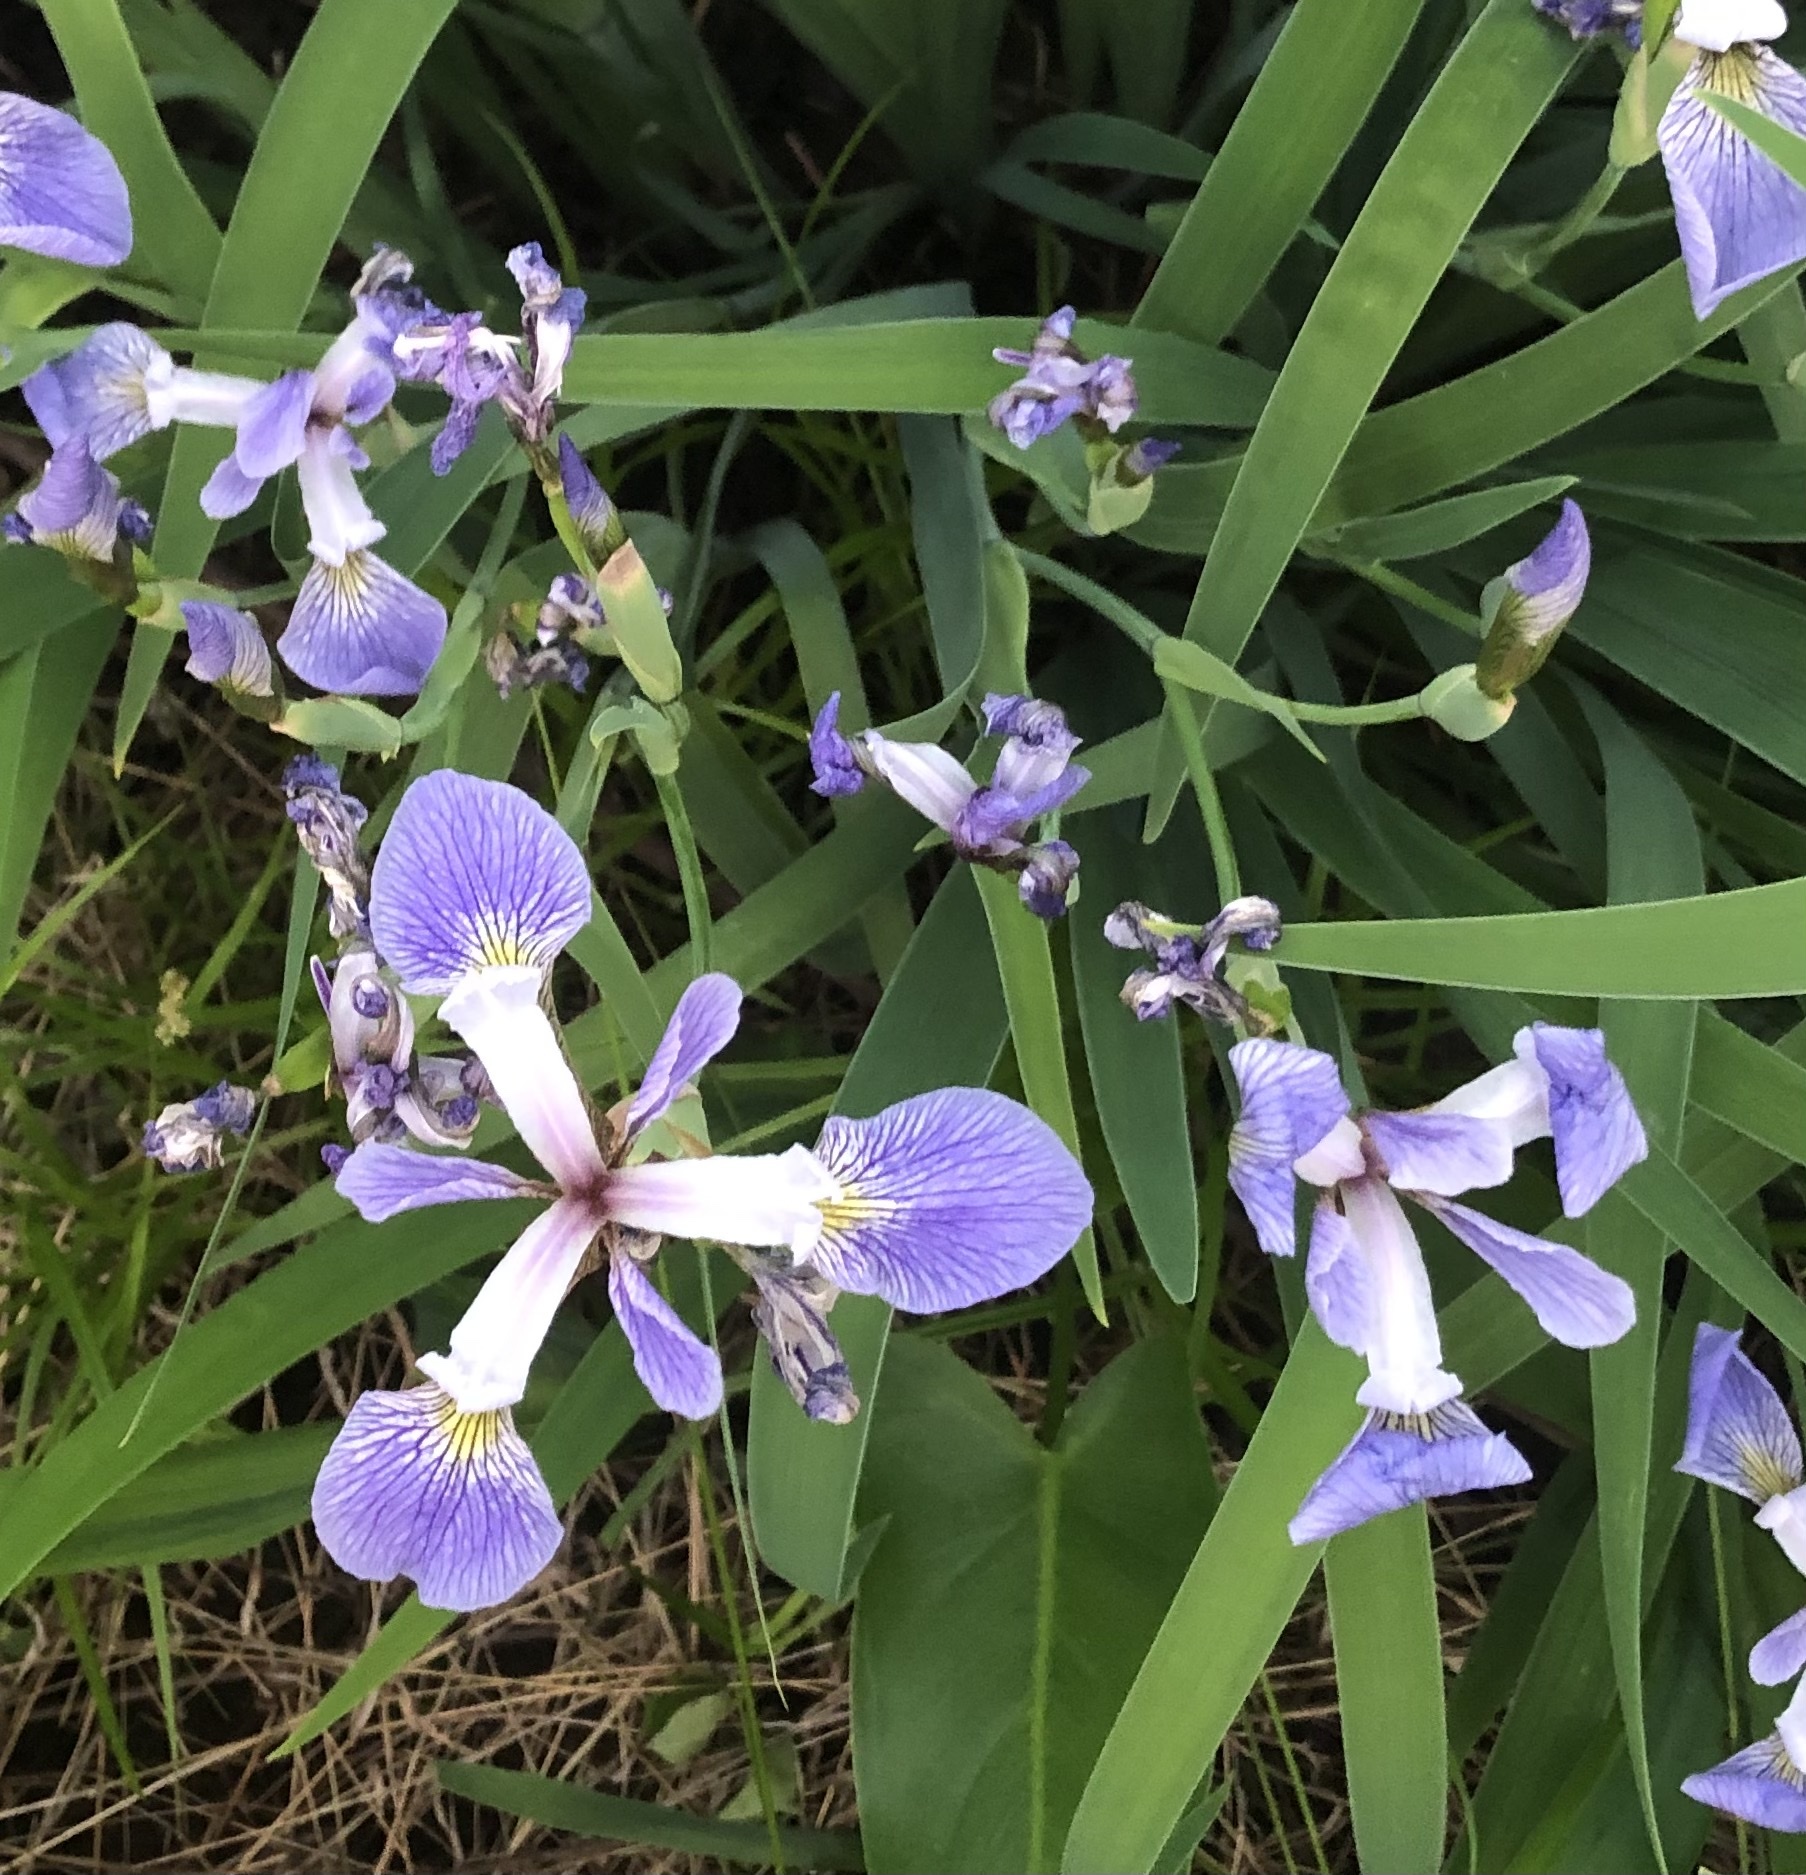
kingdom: Plantae
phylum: Tracheophyta
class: Liliopsida
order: Asparagales
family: Iridaceae
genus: Iris
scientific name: Iris virginica
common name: Southern blue flag
